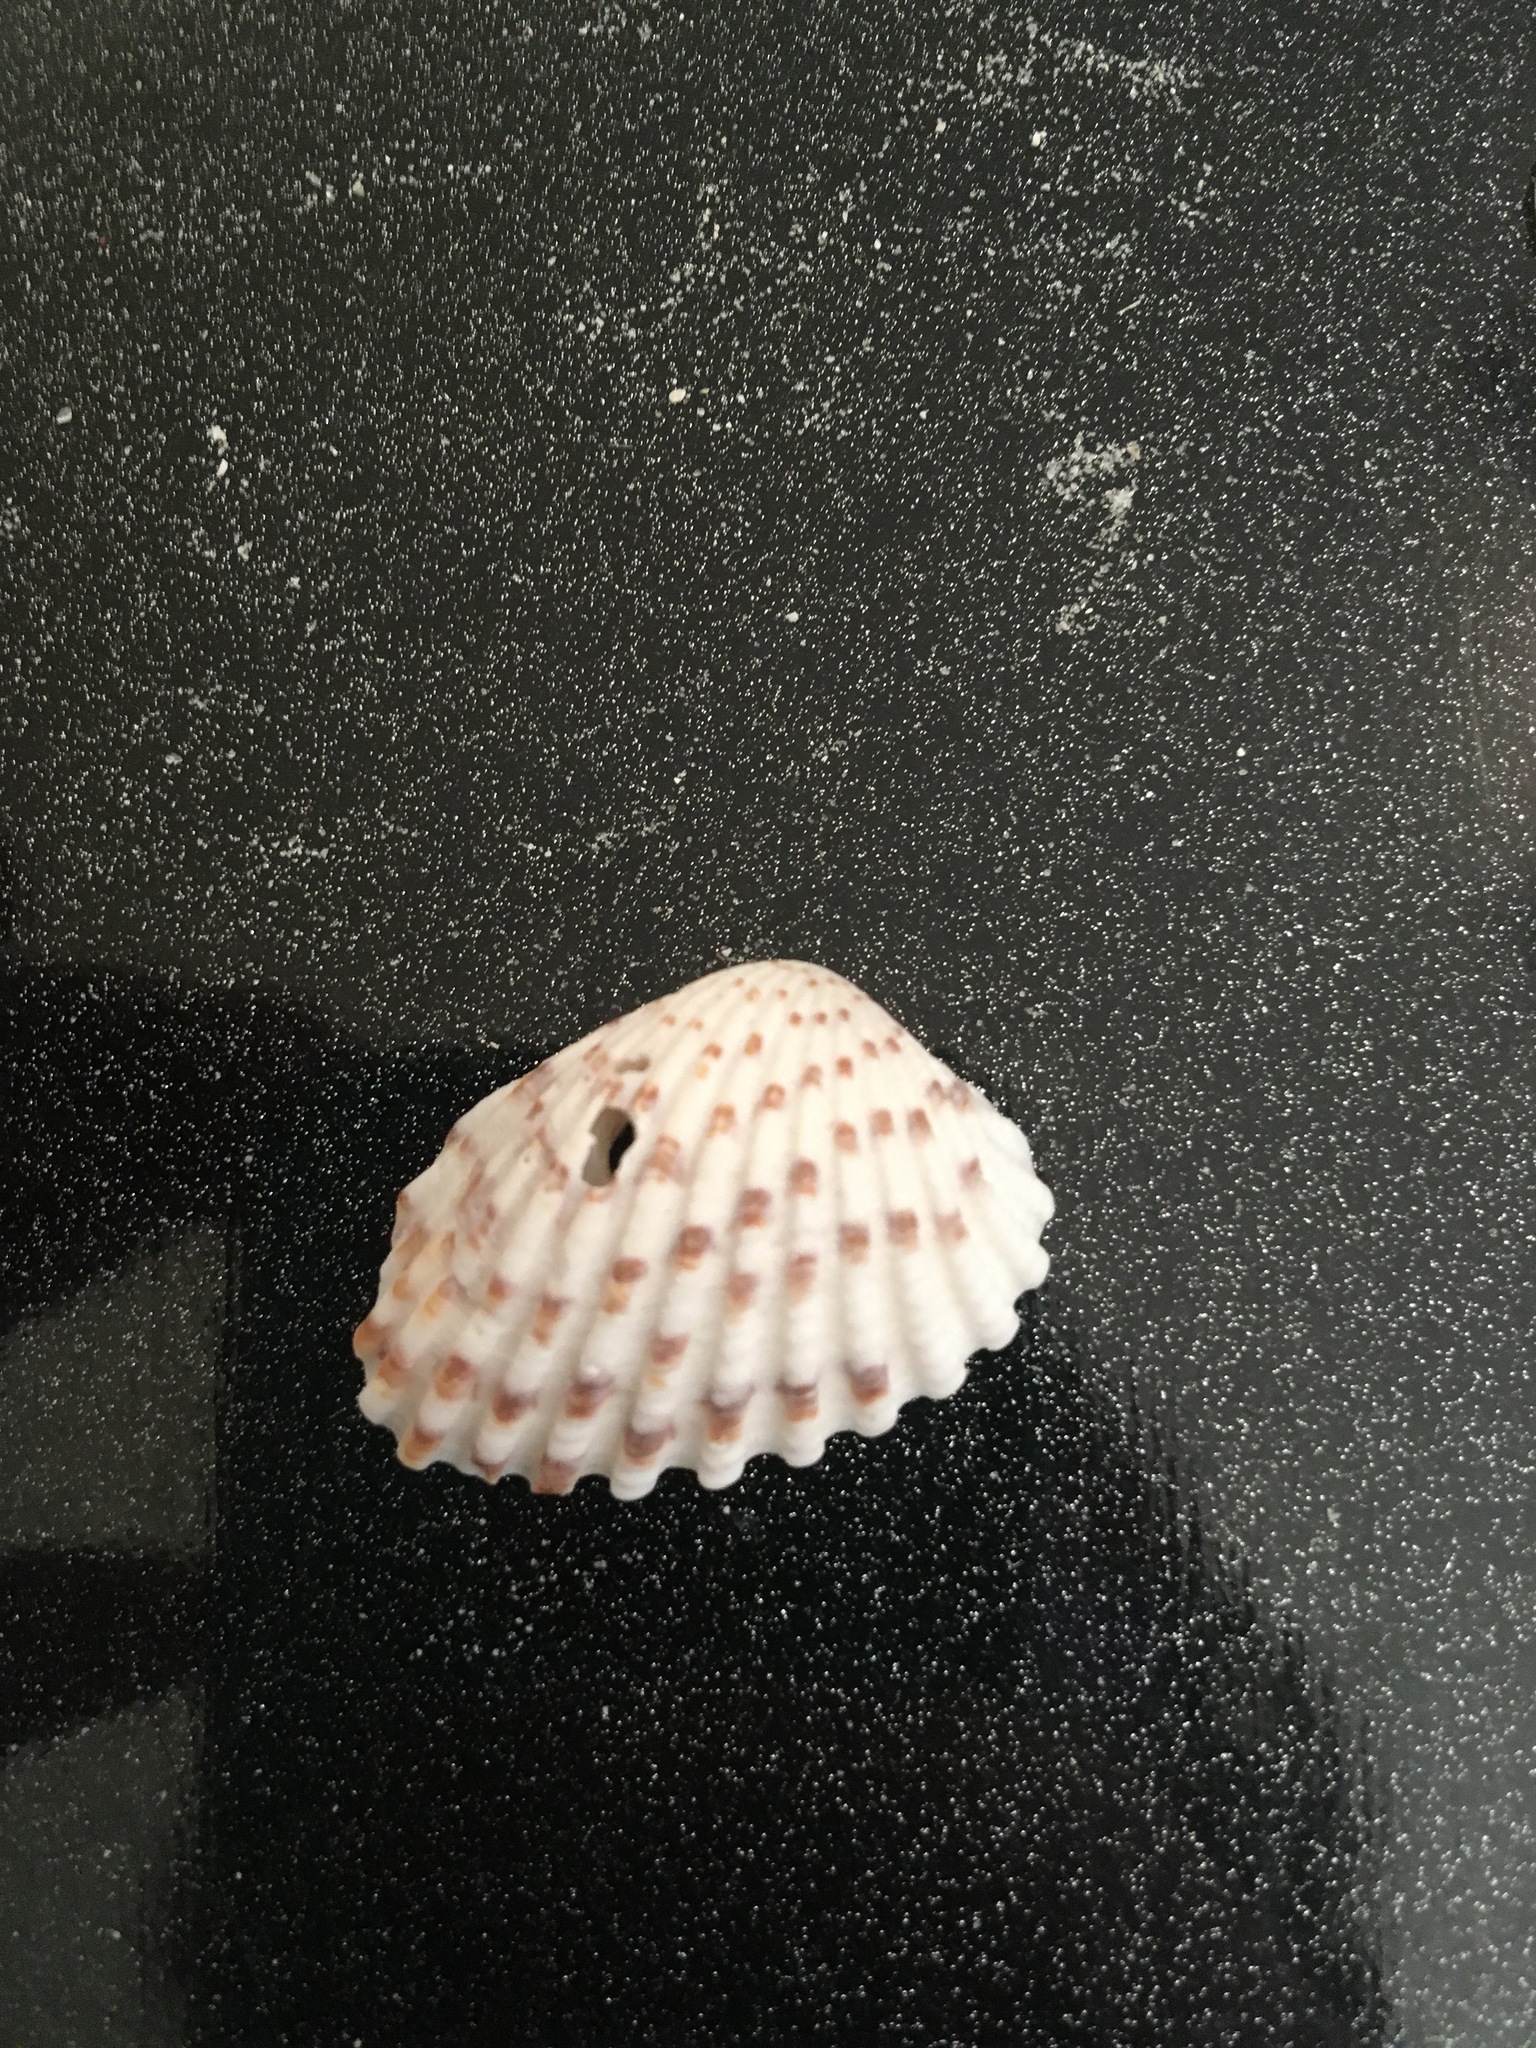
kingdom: Animalia
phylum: Mollusca
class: Bivalvia
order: Carditida
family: Carditidae
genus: Cardites
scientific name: Cardites floridanus
